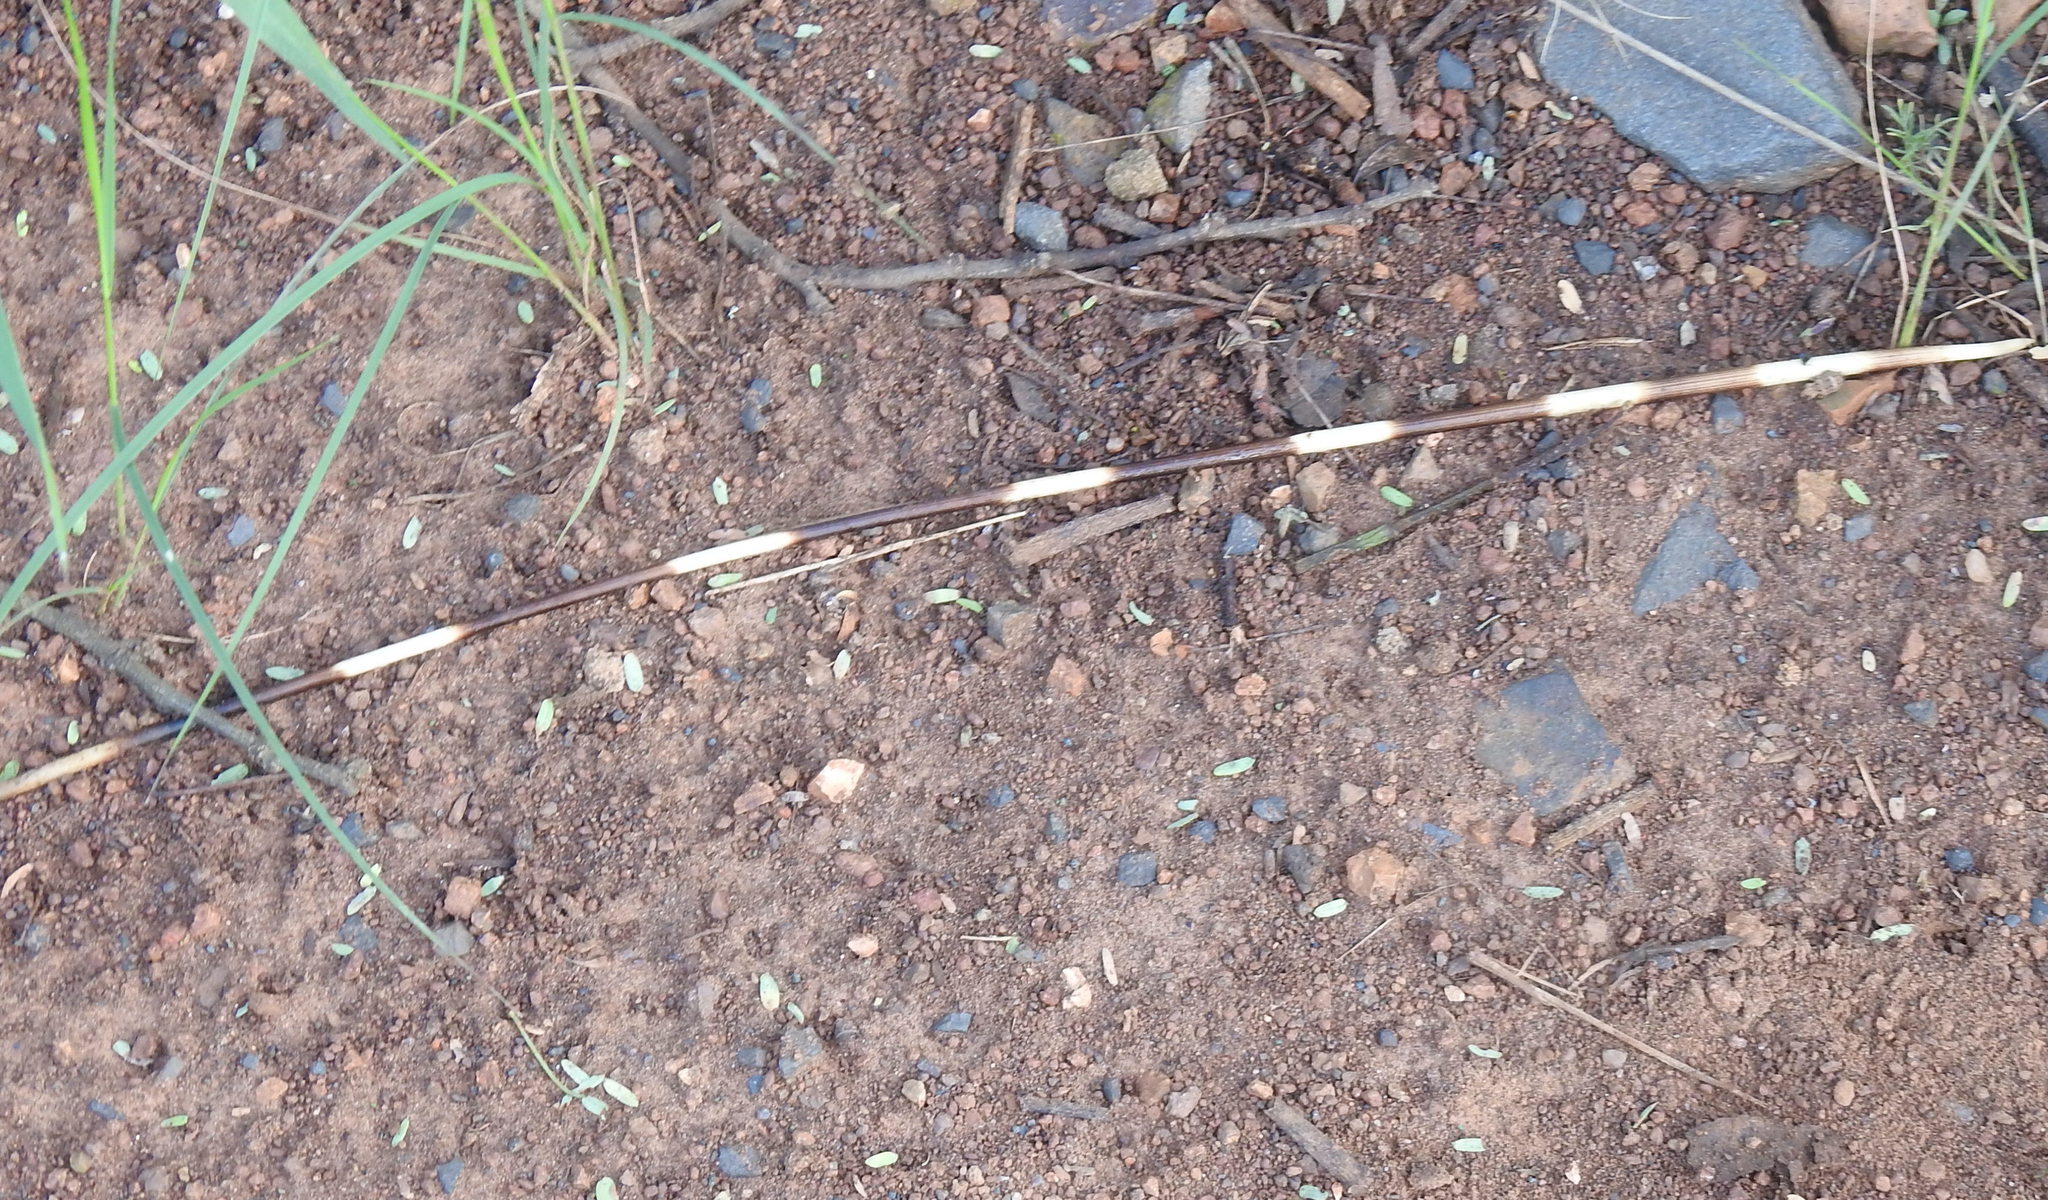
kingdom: Animalia
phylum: Chordata
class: Mammalia
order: Rodentia
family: Hystricidae
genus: Hystrix
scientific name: Hystrix africaeaustralis
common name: Cape porcupine
